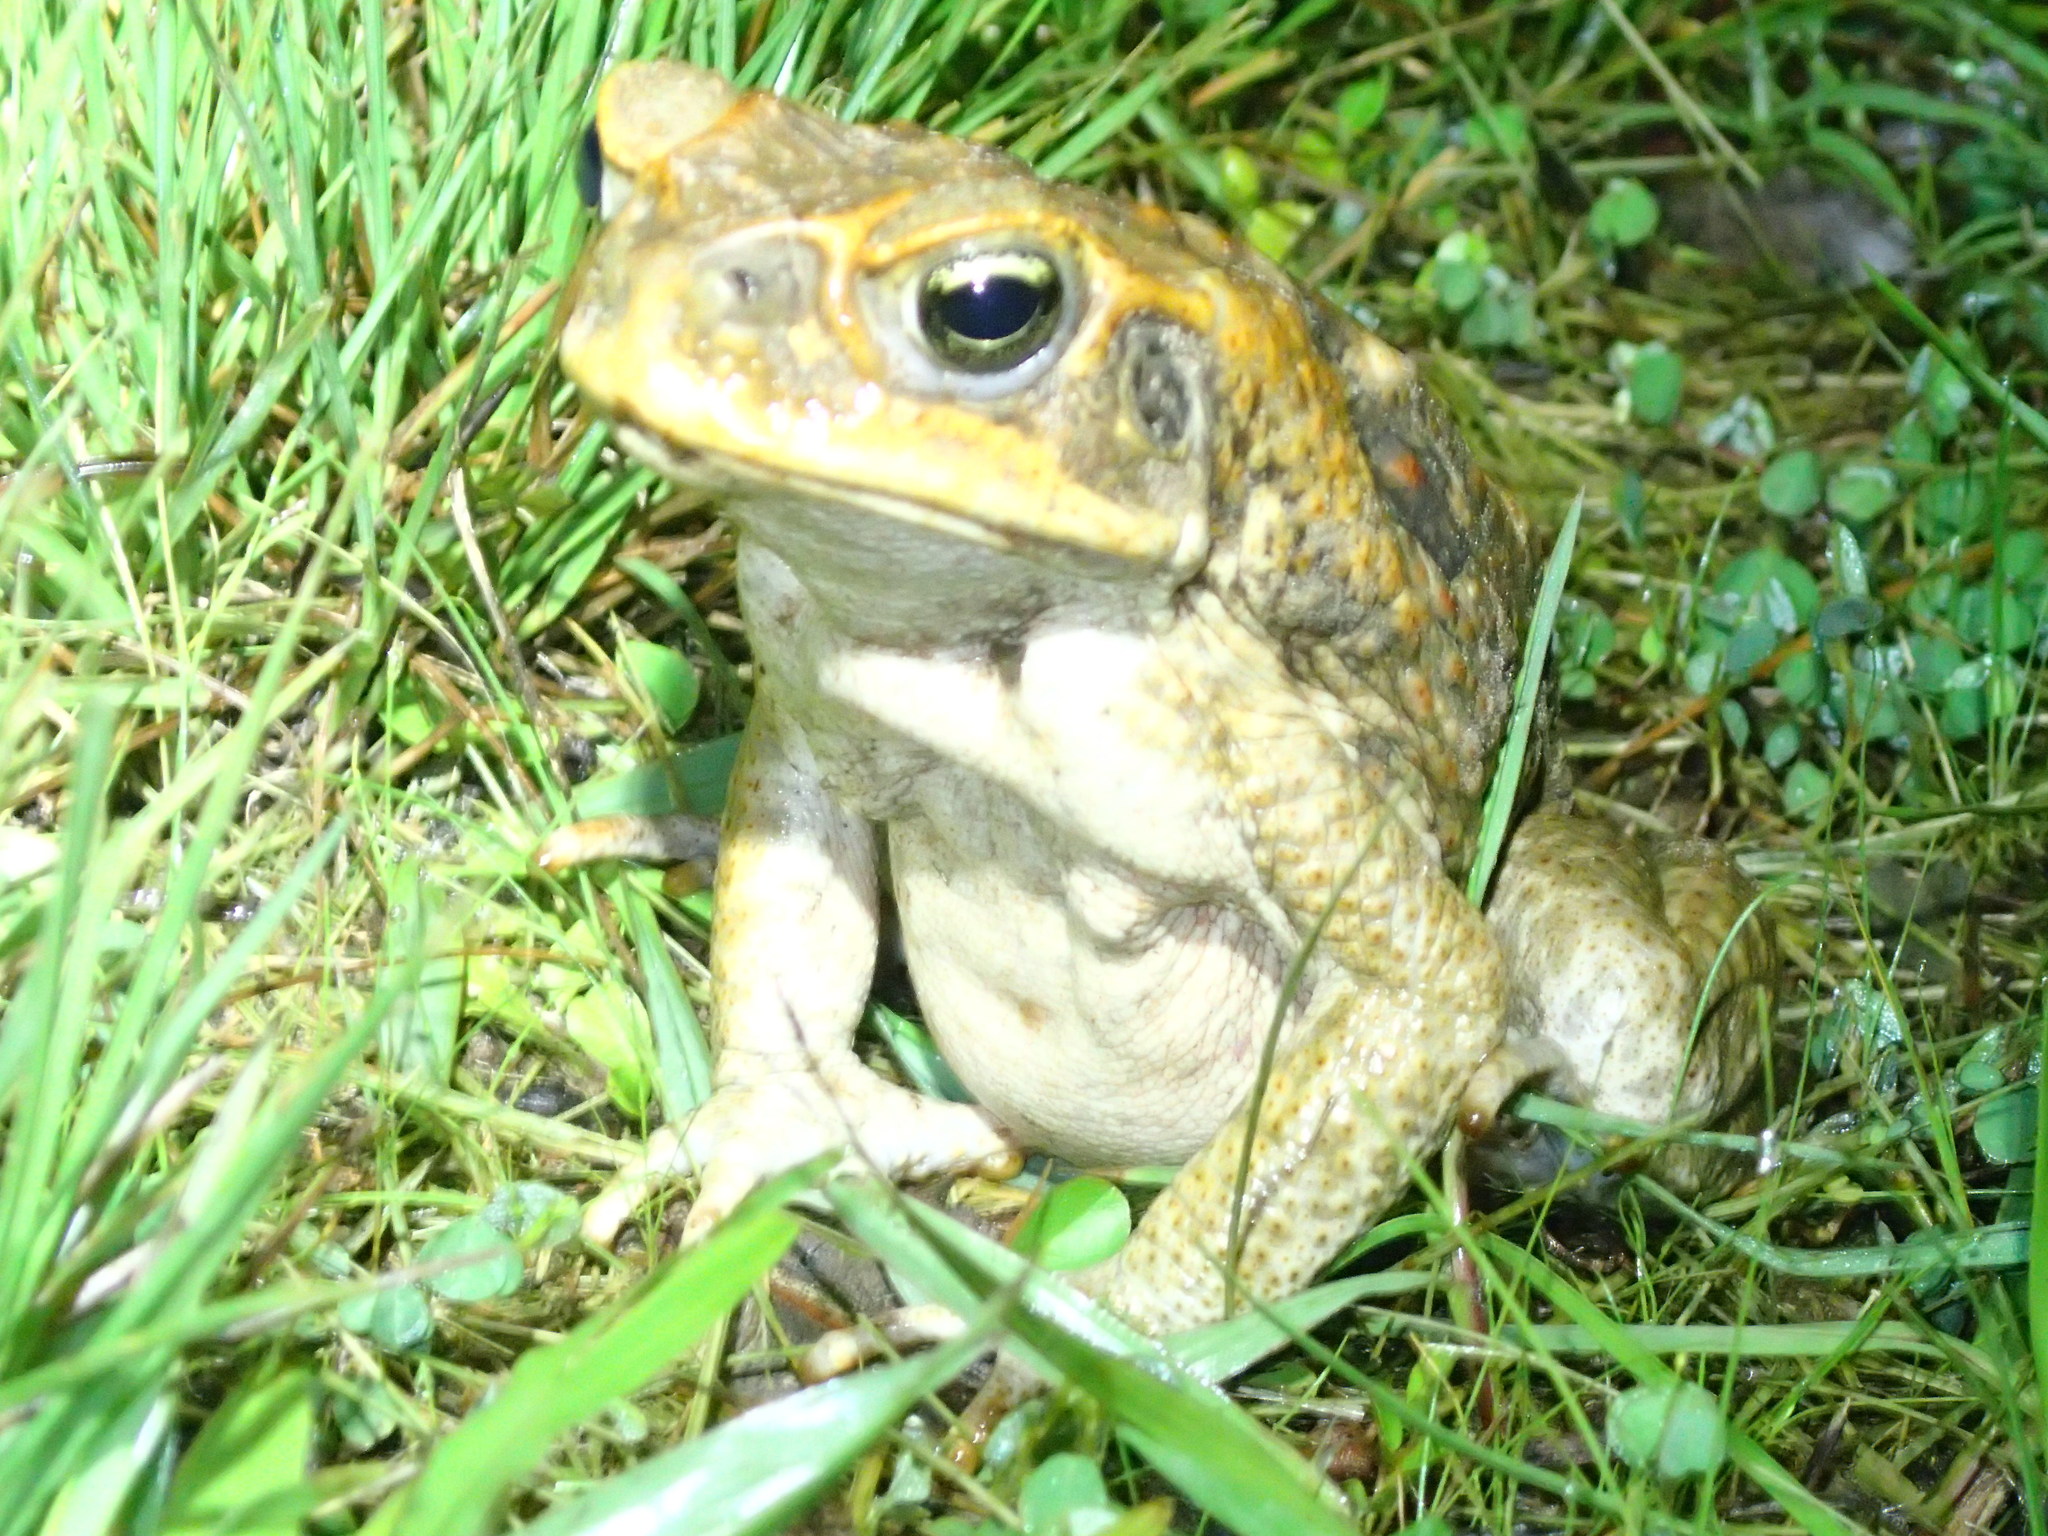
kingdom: Animalia
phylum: Chordata
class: Amphibia
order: Anura
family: Bufonidae
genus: Rhinella
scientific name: Rhinella marina
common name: Cane toad
